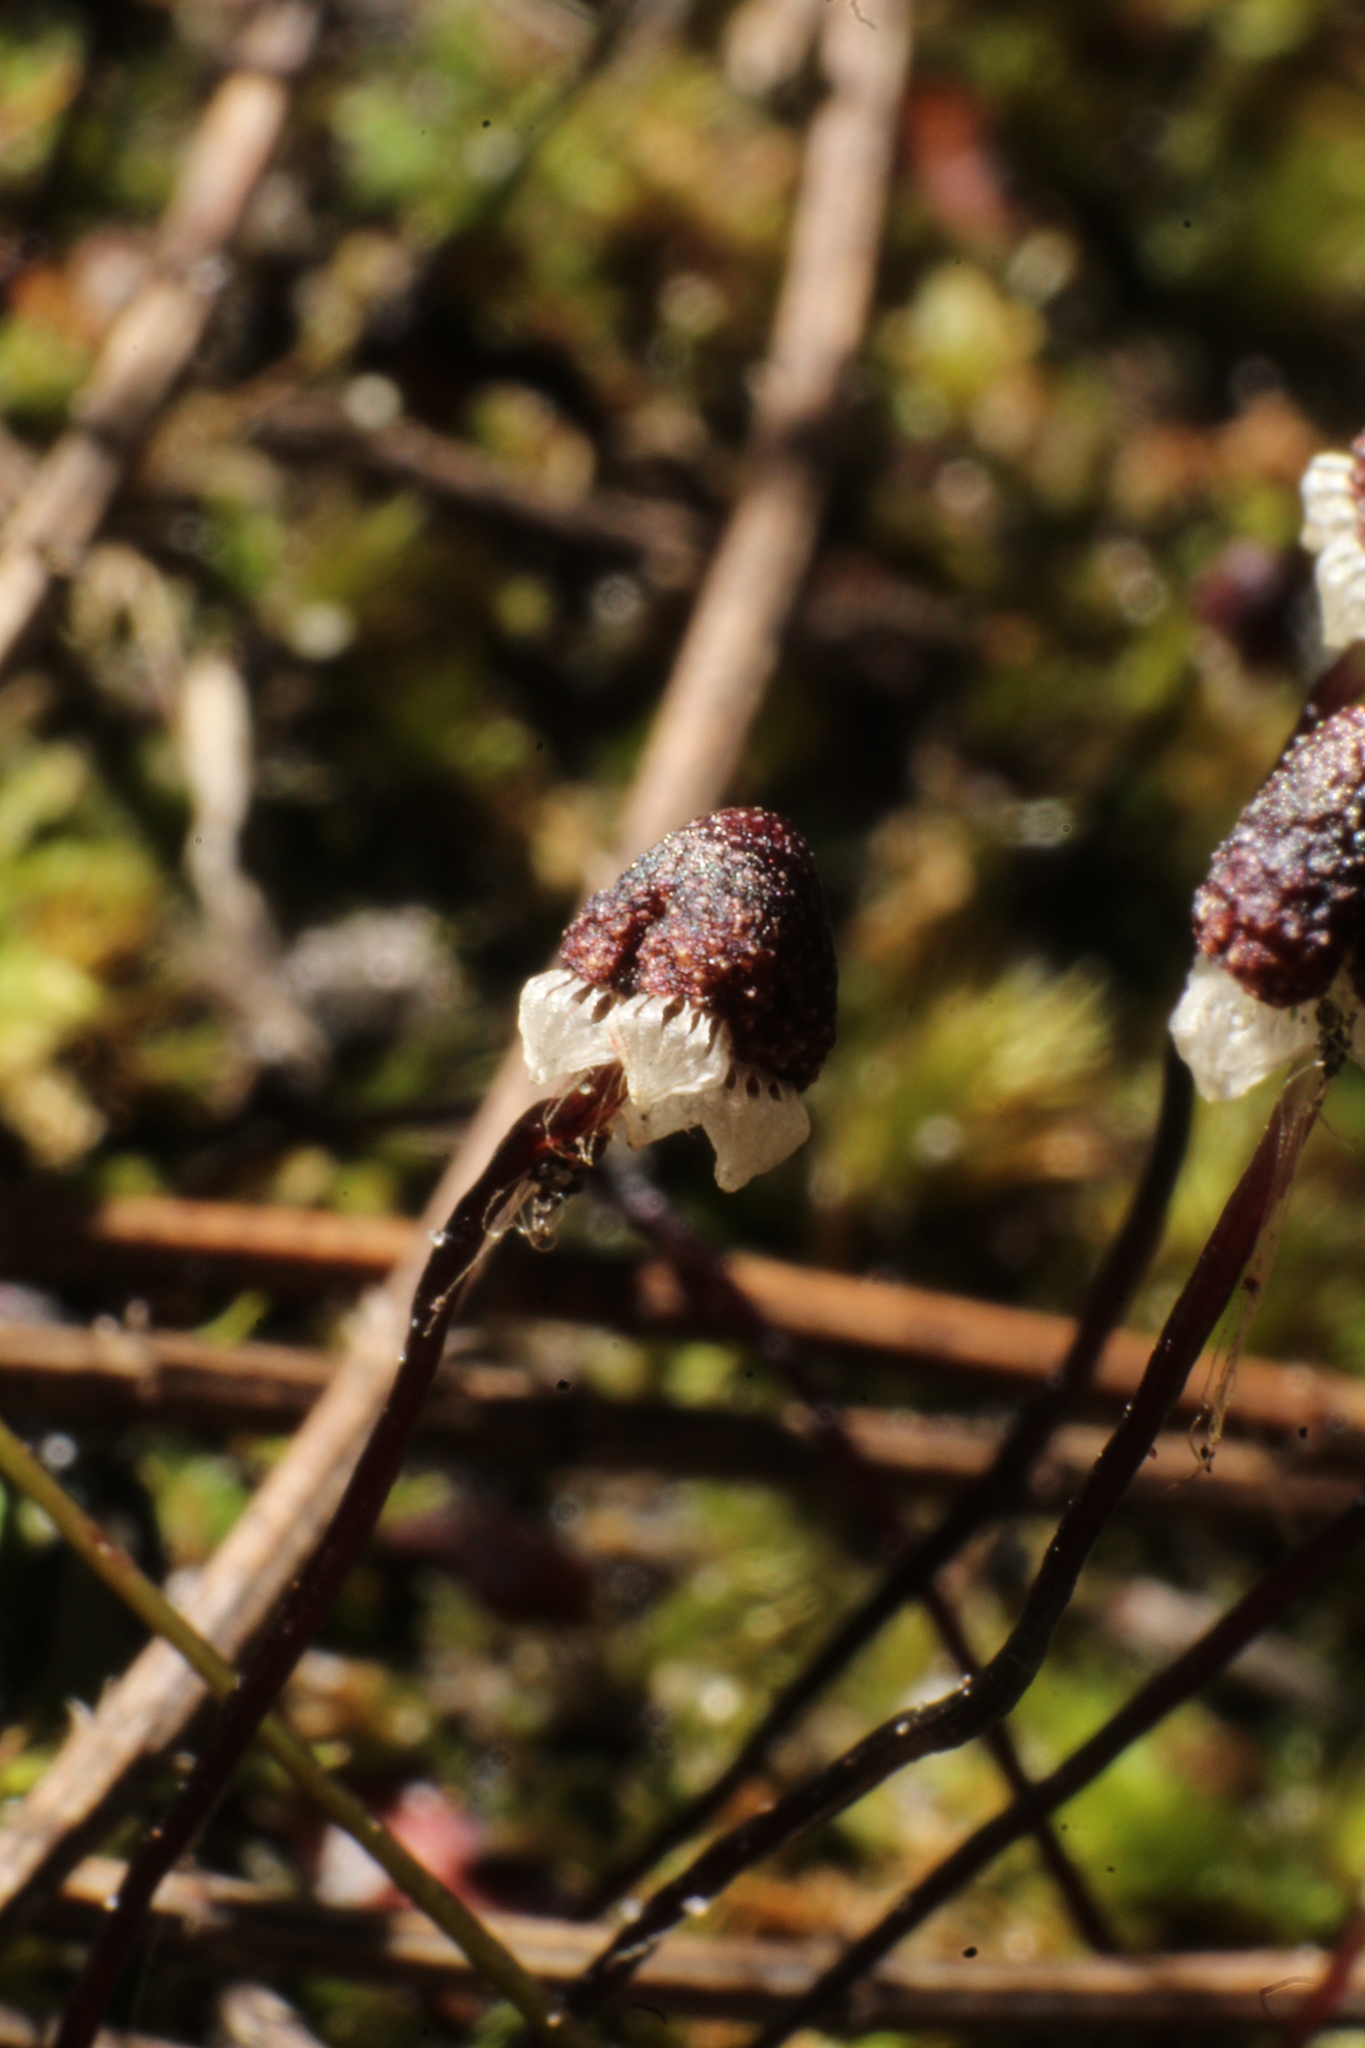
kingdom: Plantae
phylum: Marchantiophyta
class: Marchantiopsida
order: Marchantiales
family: Aytoniaceae
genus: Asterella
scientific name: Asterella drummondii
